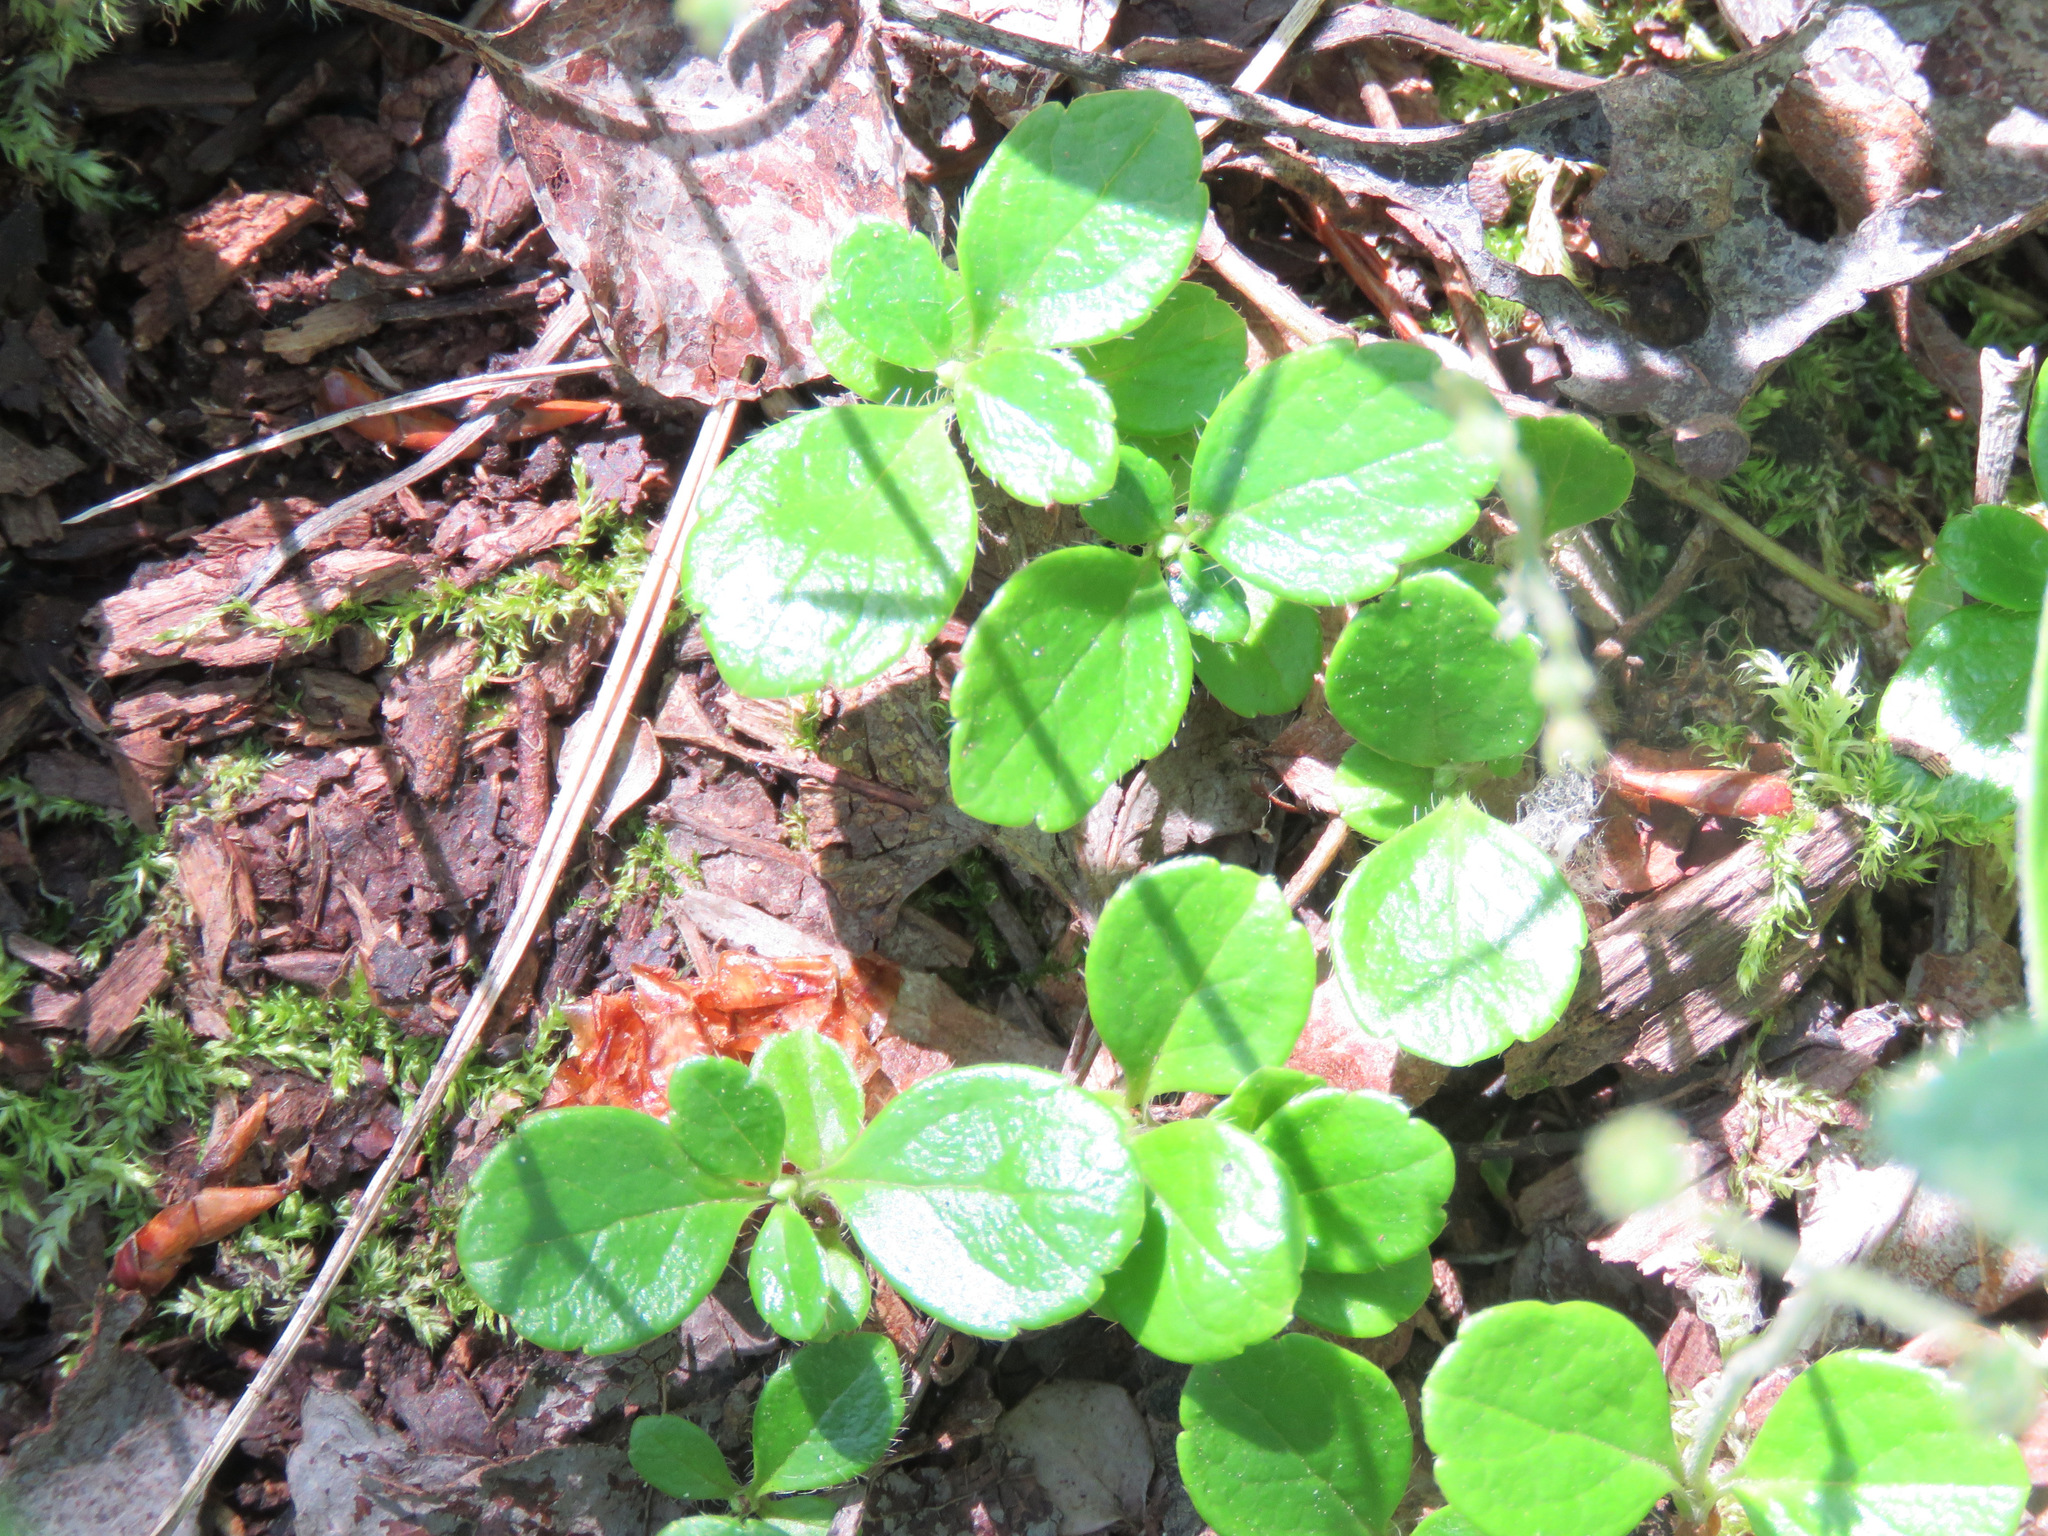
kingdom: Plantae
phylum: Tracheophyta
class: Magnoliopsida
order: Dipsacales
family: Caprifoliaceae
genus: Linnaea
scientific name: Linnaea borealis
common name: Twinflower
